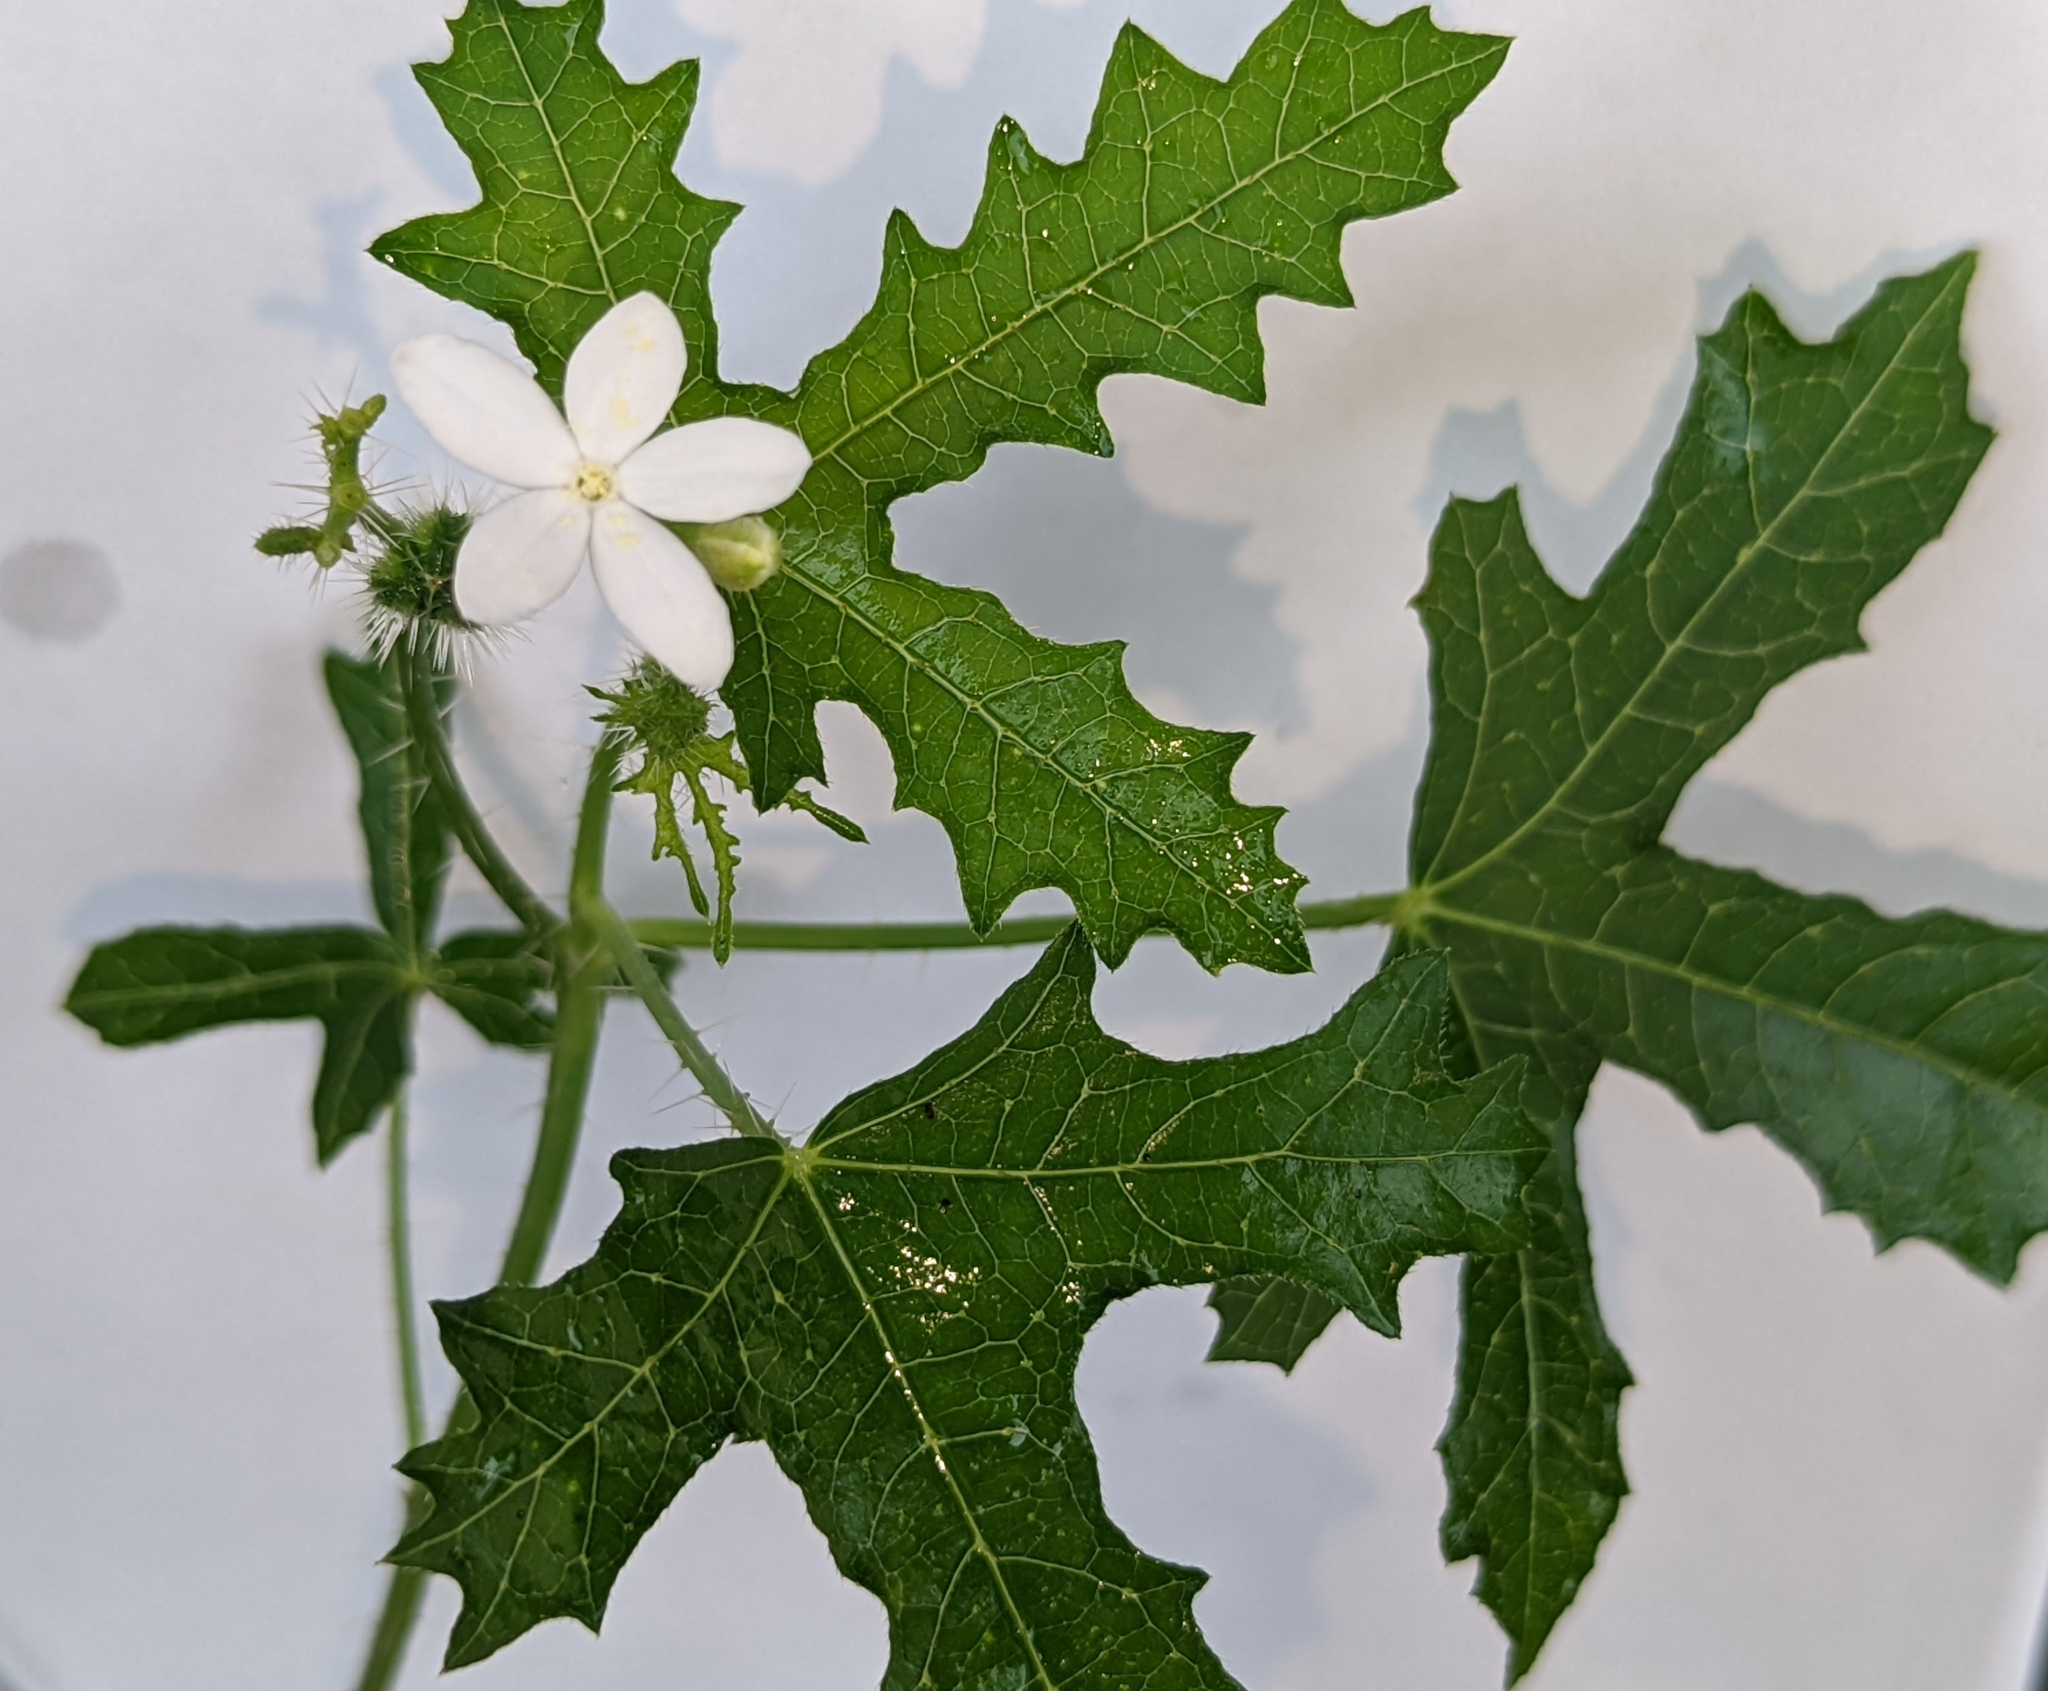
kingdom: Plantae
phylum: Tracheophyta
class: Magnoliopsida
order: Malpighiales
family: Euphorbiaceae
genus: Cnidoscolus
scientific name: Cnidoscolus stimulosus
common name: Bull-nettle
